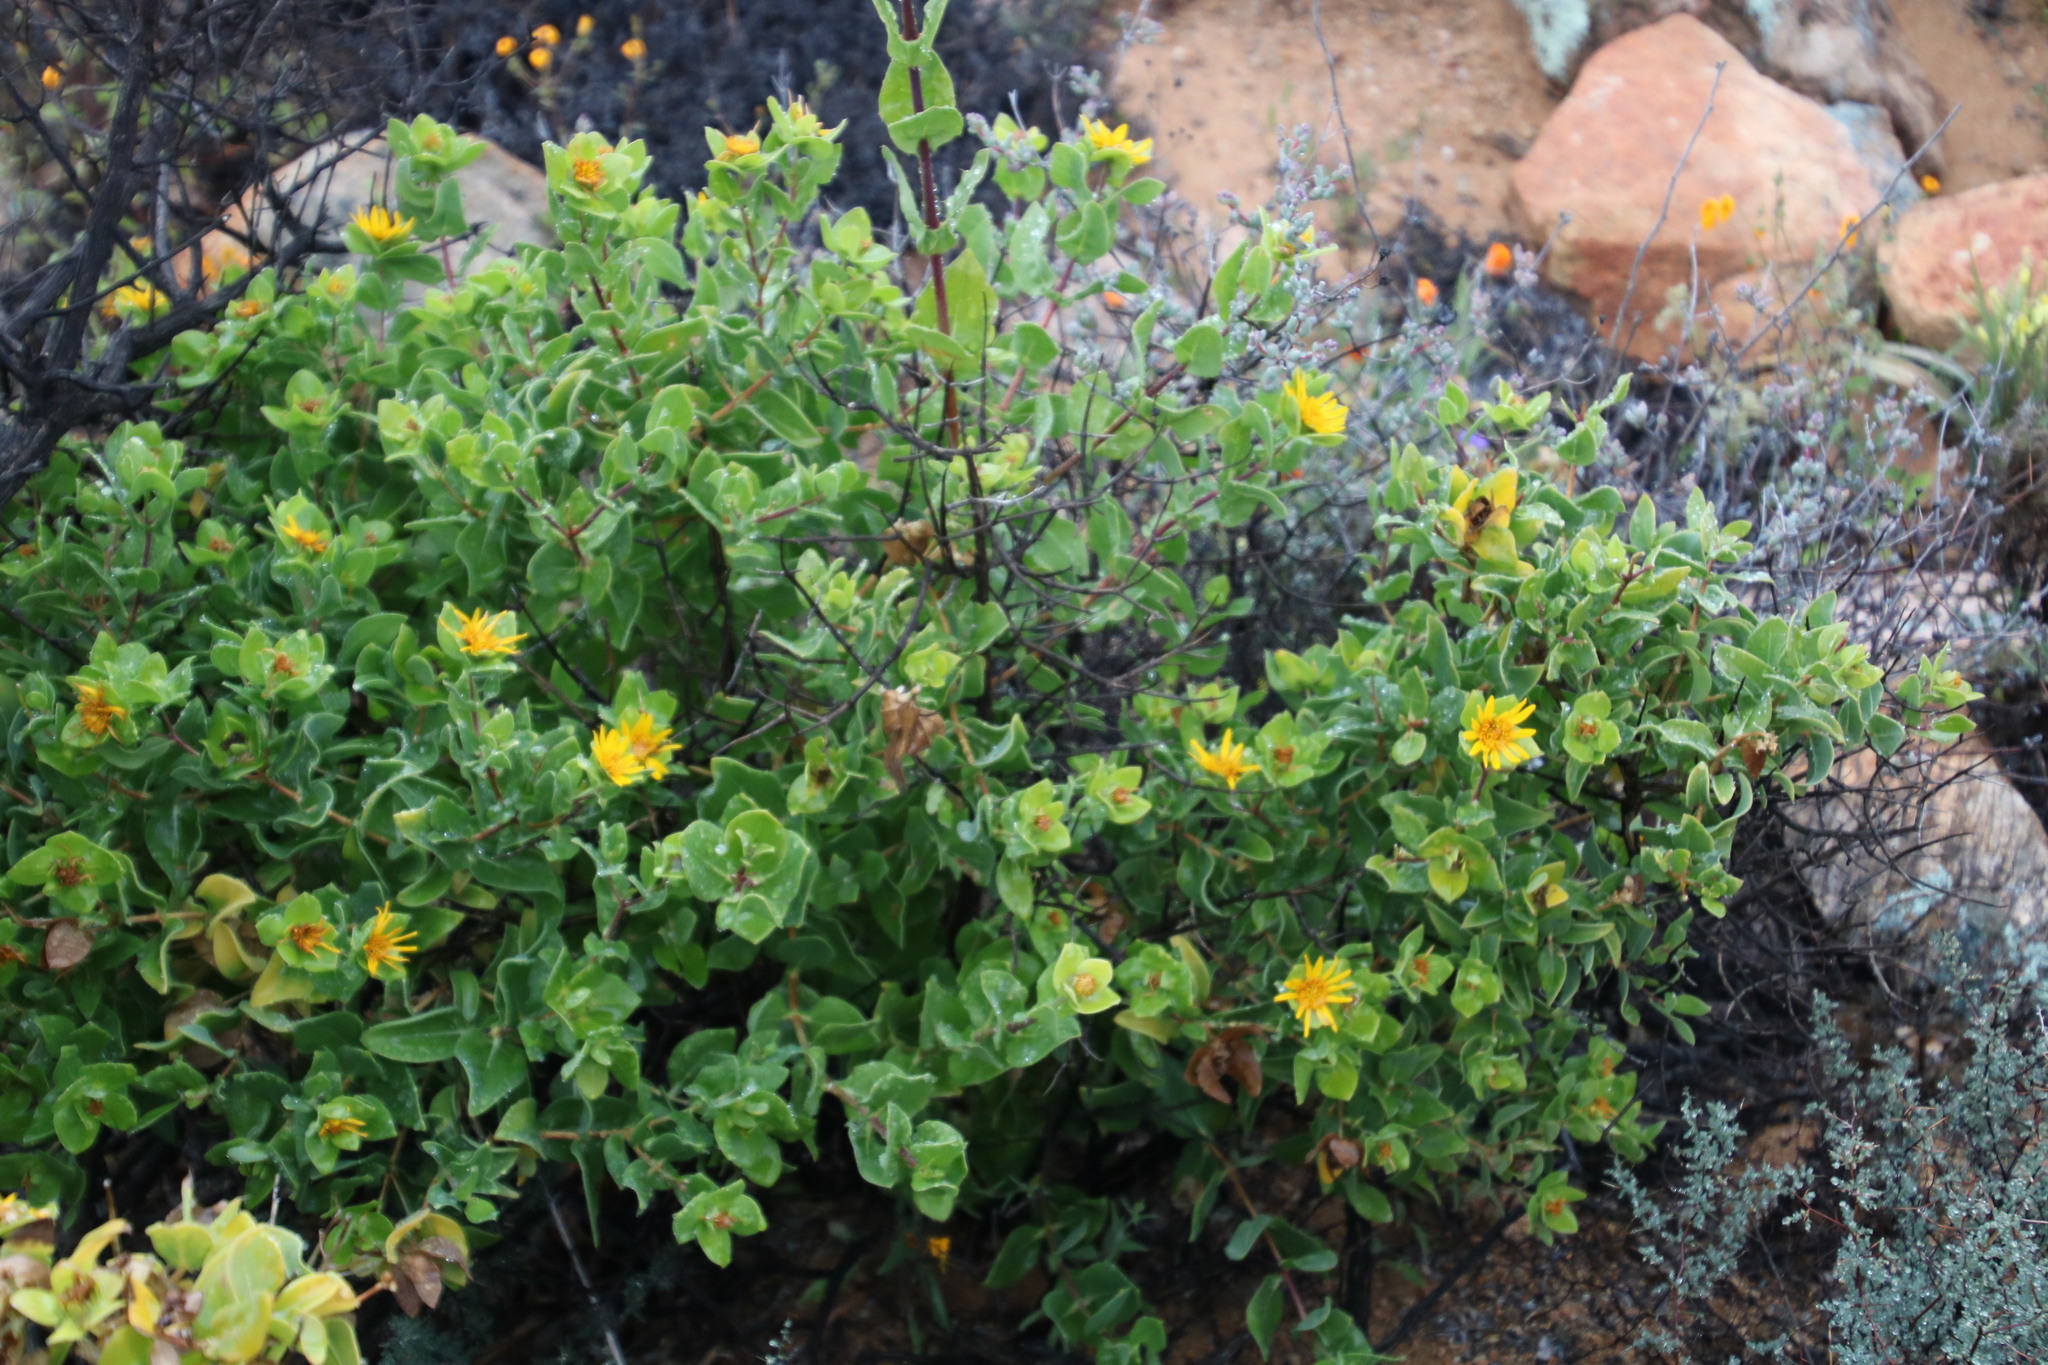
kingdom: Plantae
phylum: Tracheophyta
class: Magnoliopsida
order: Asterales
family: Asteraceae
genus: Didelta
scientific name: Didelta spinosa
